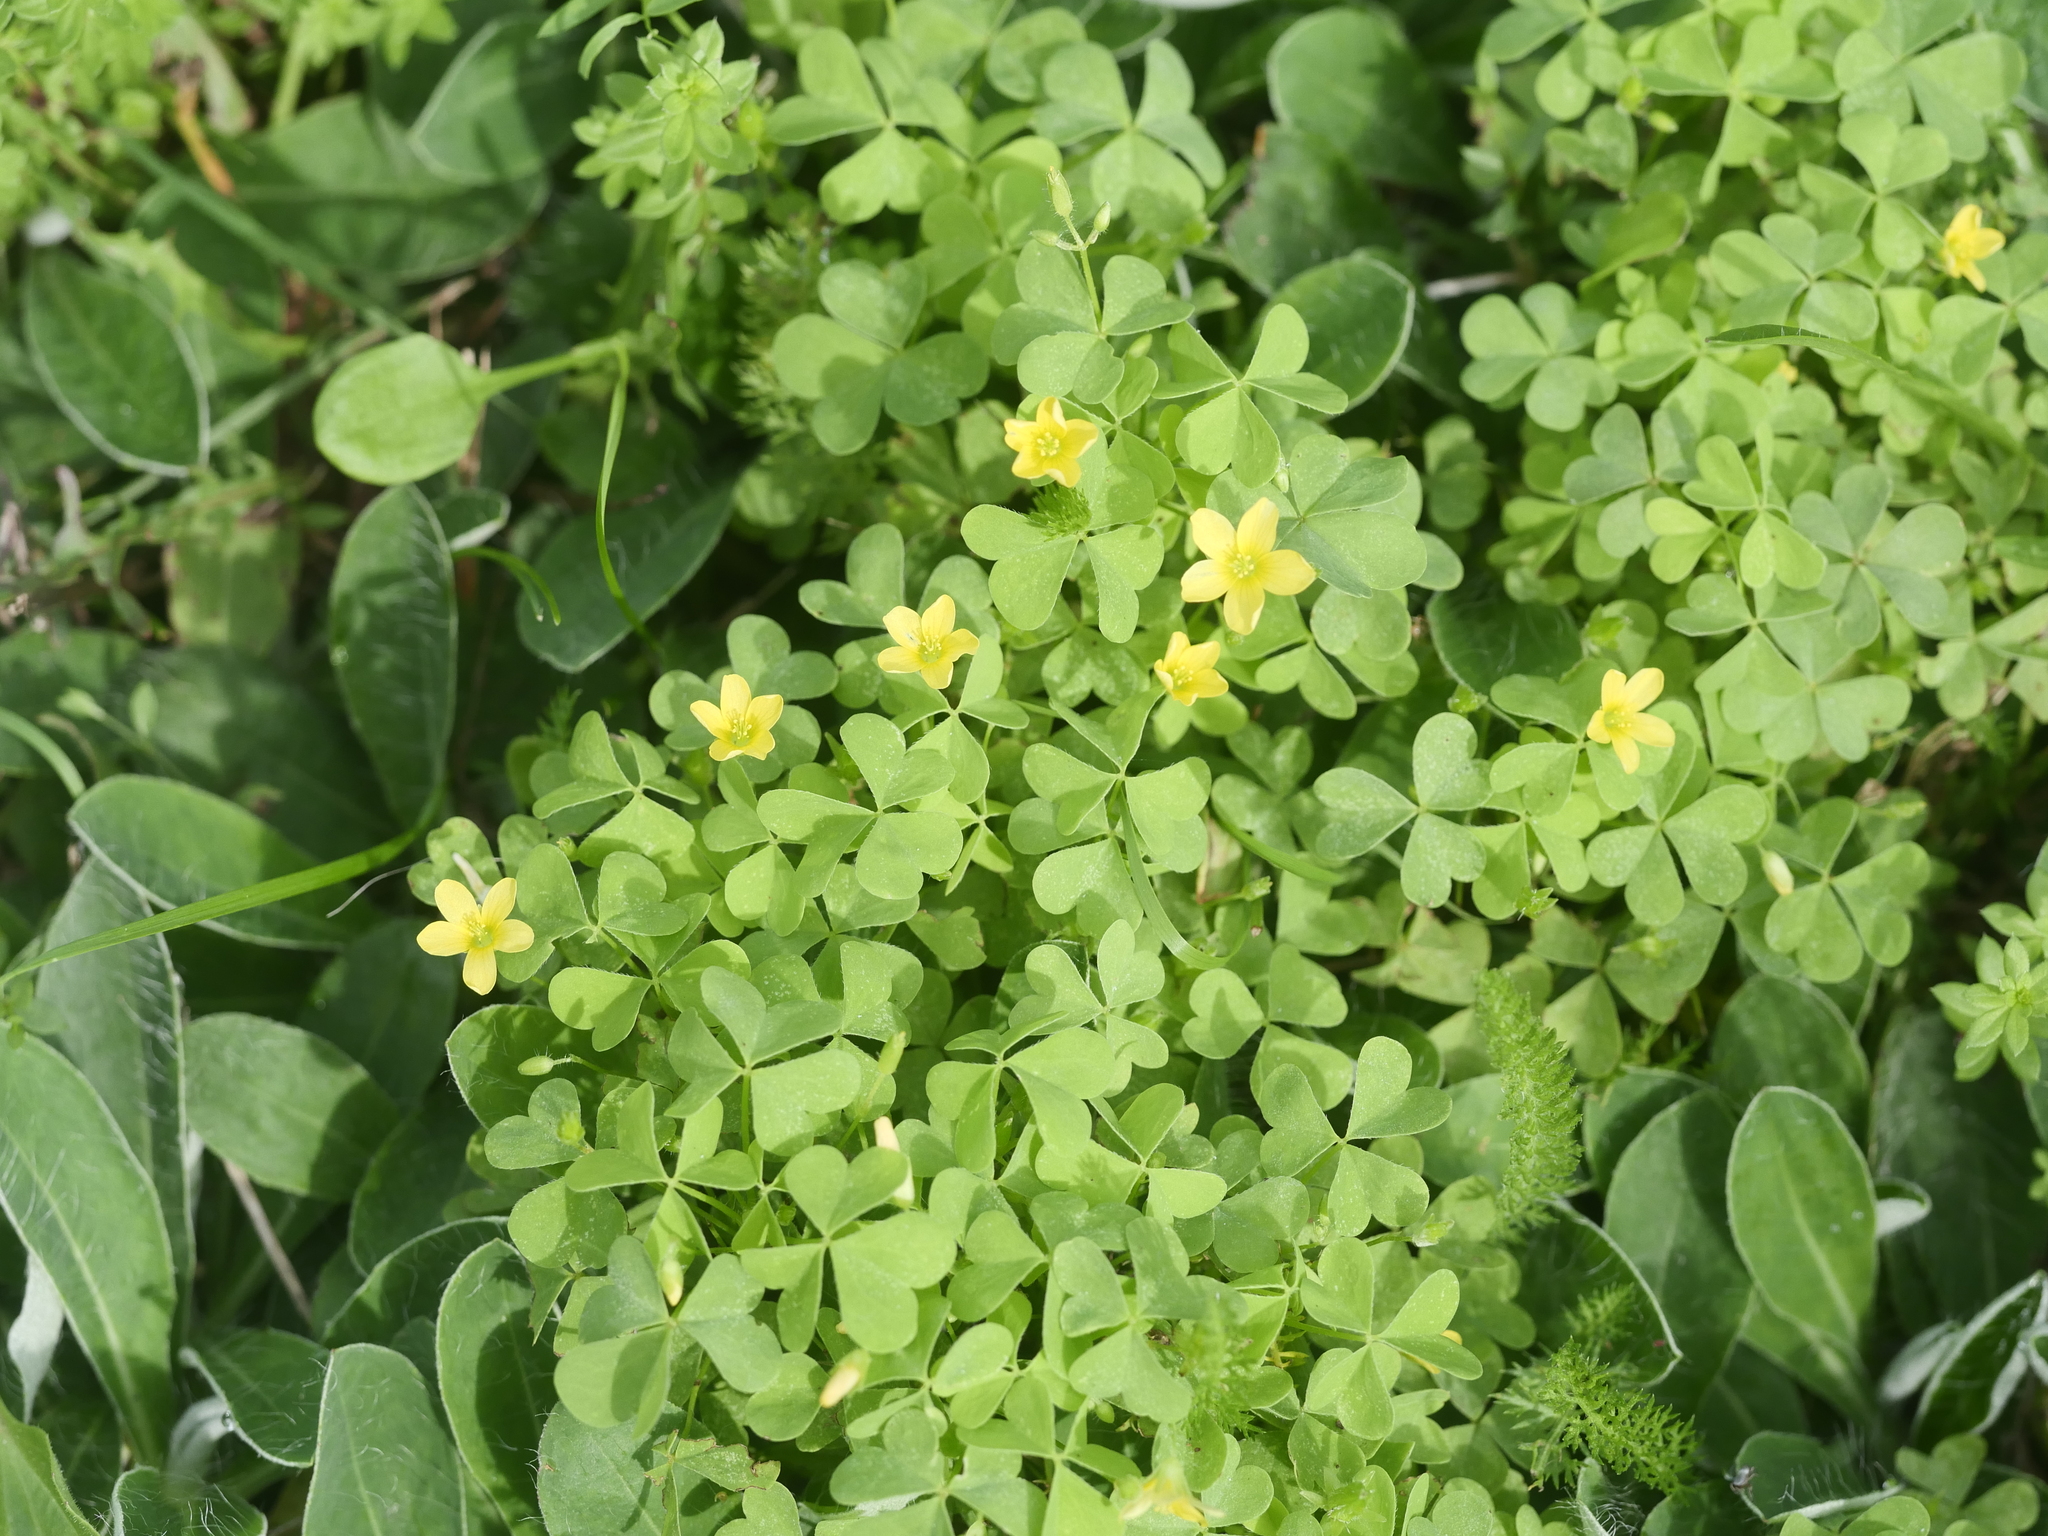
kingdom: Plantae
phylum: Tracheophyta
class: Magnoliopsida
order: Oxalidales
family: Oxalidaceae
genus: Oxalis
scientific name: Oxalis stricta
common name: Upright yellow-sorrel
